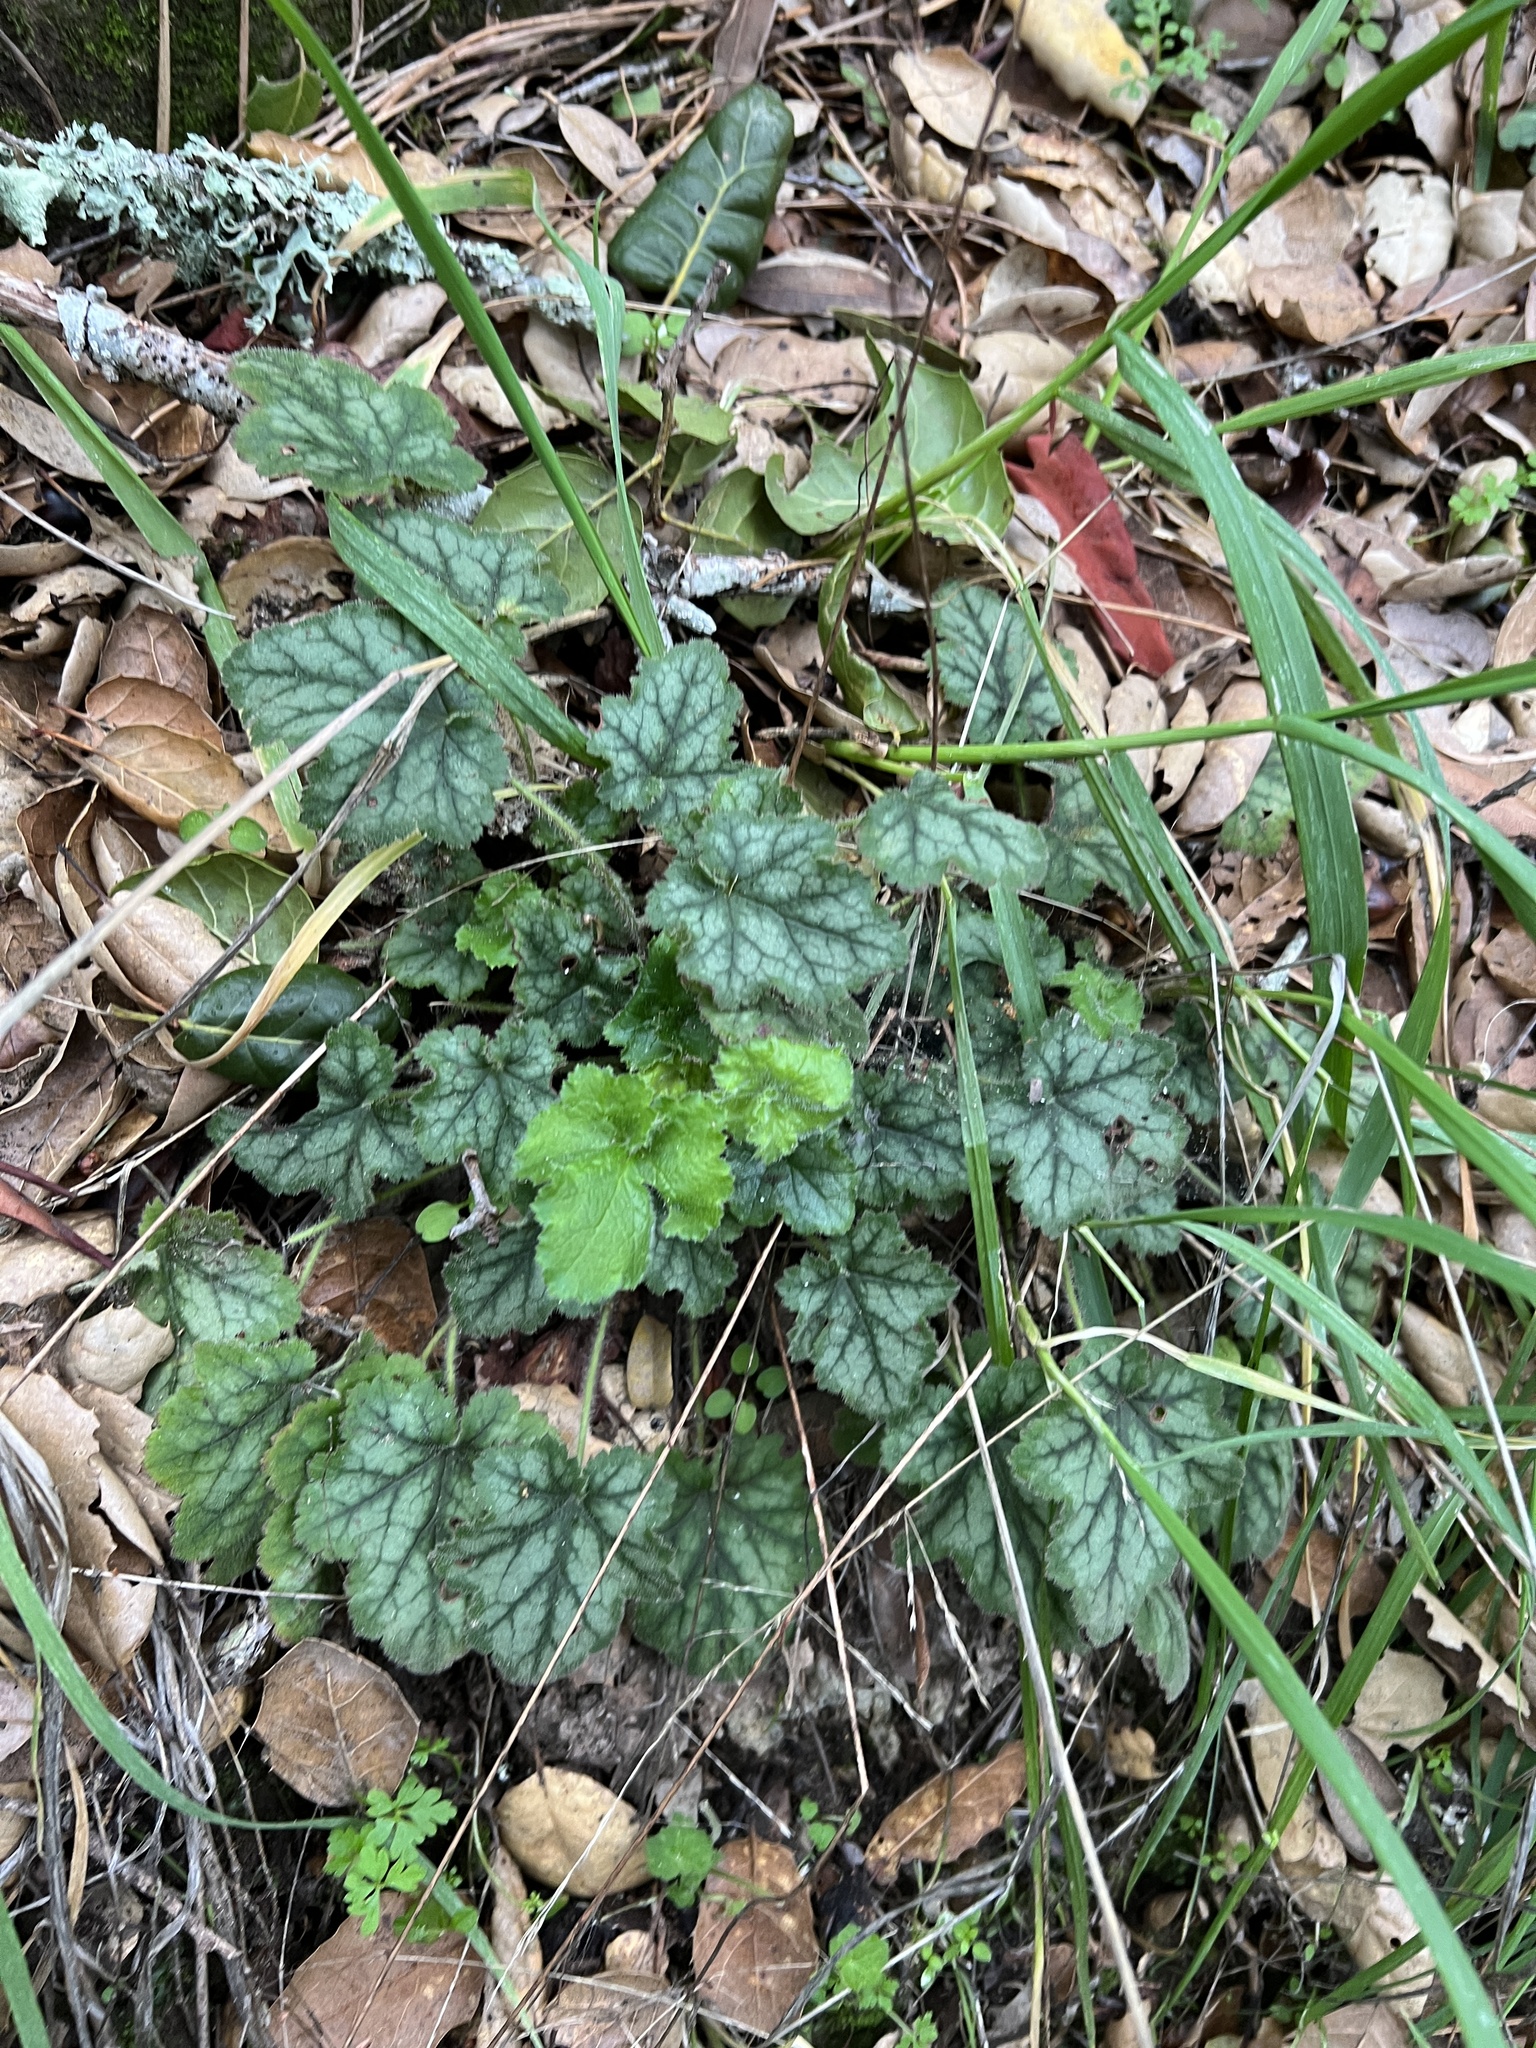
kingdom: Plantae
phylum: Tracheophyta
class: Magnoliopsida
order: Saxifragales
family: Saxifragaceae
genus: Heuchera
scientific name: Heuchera micrantha
